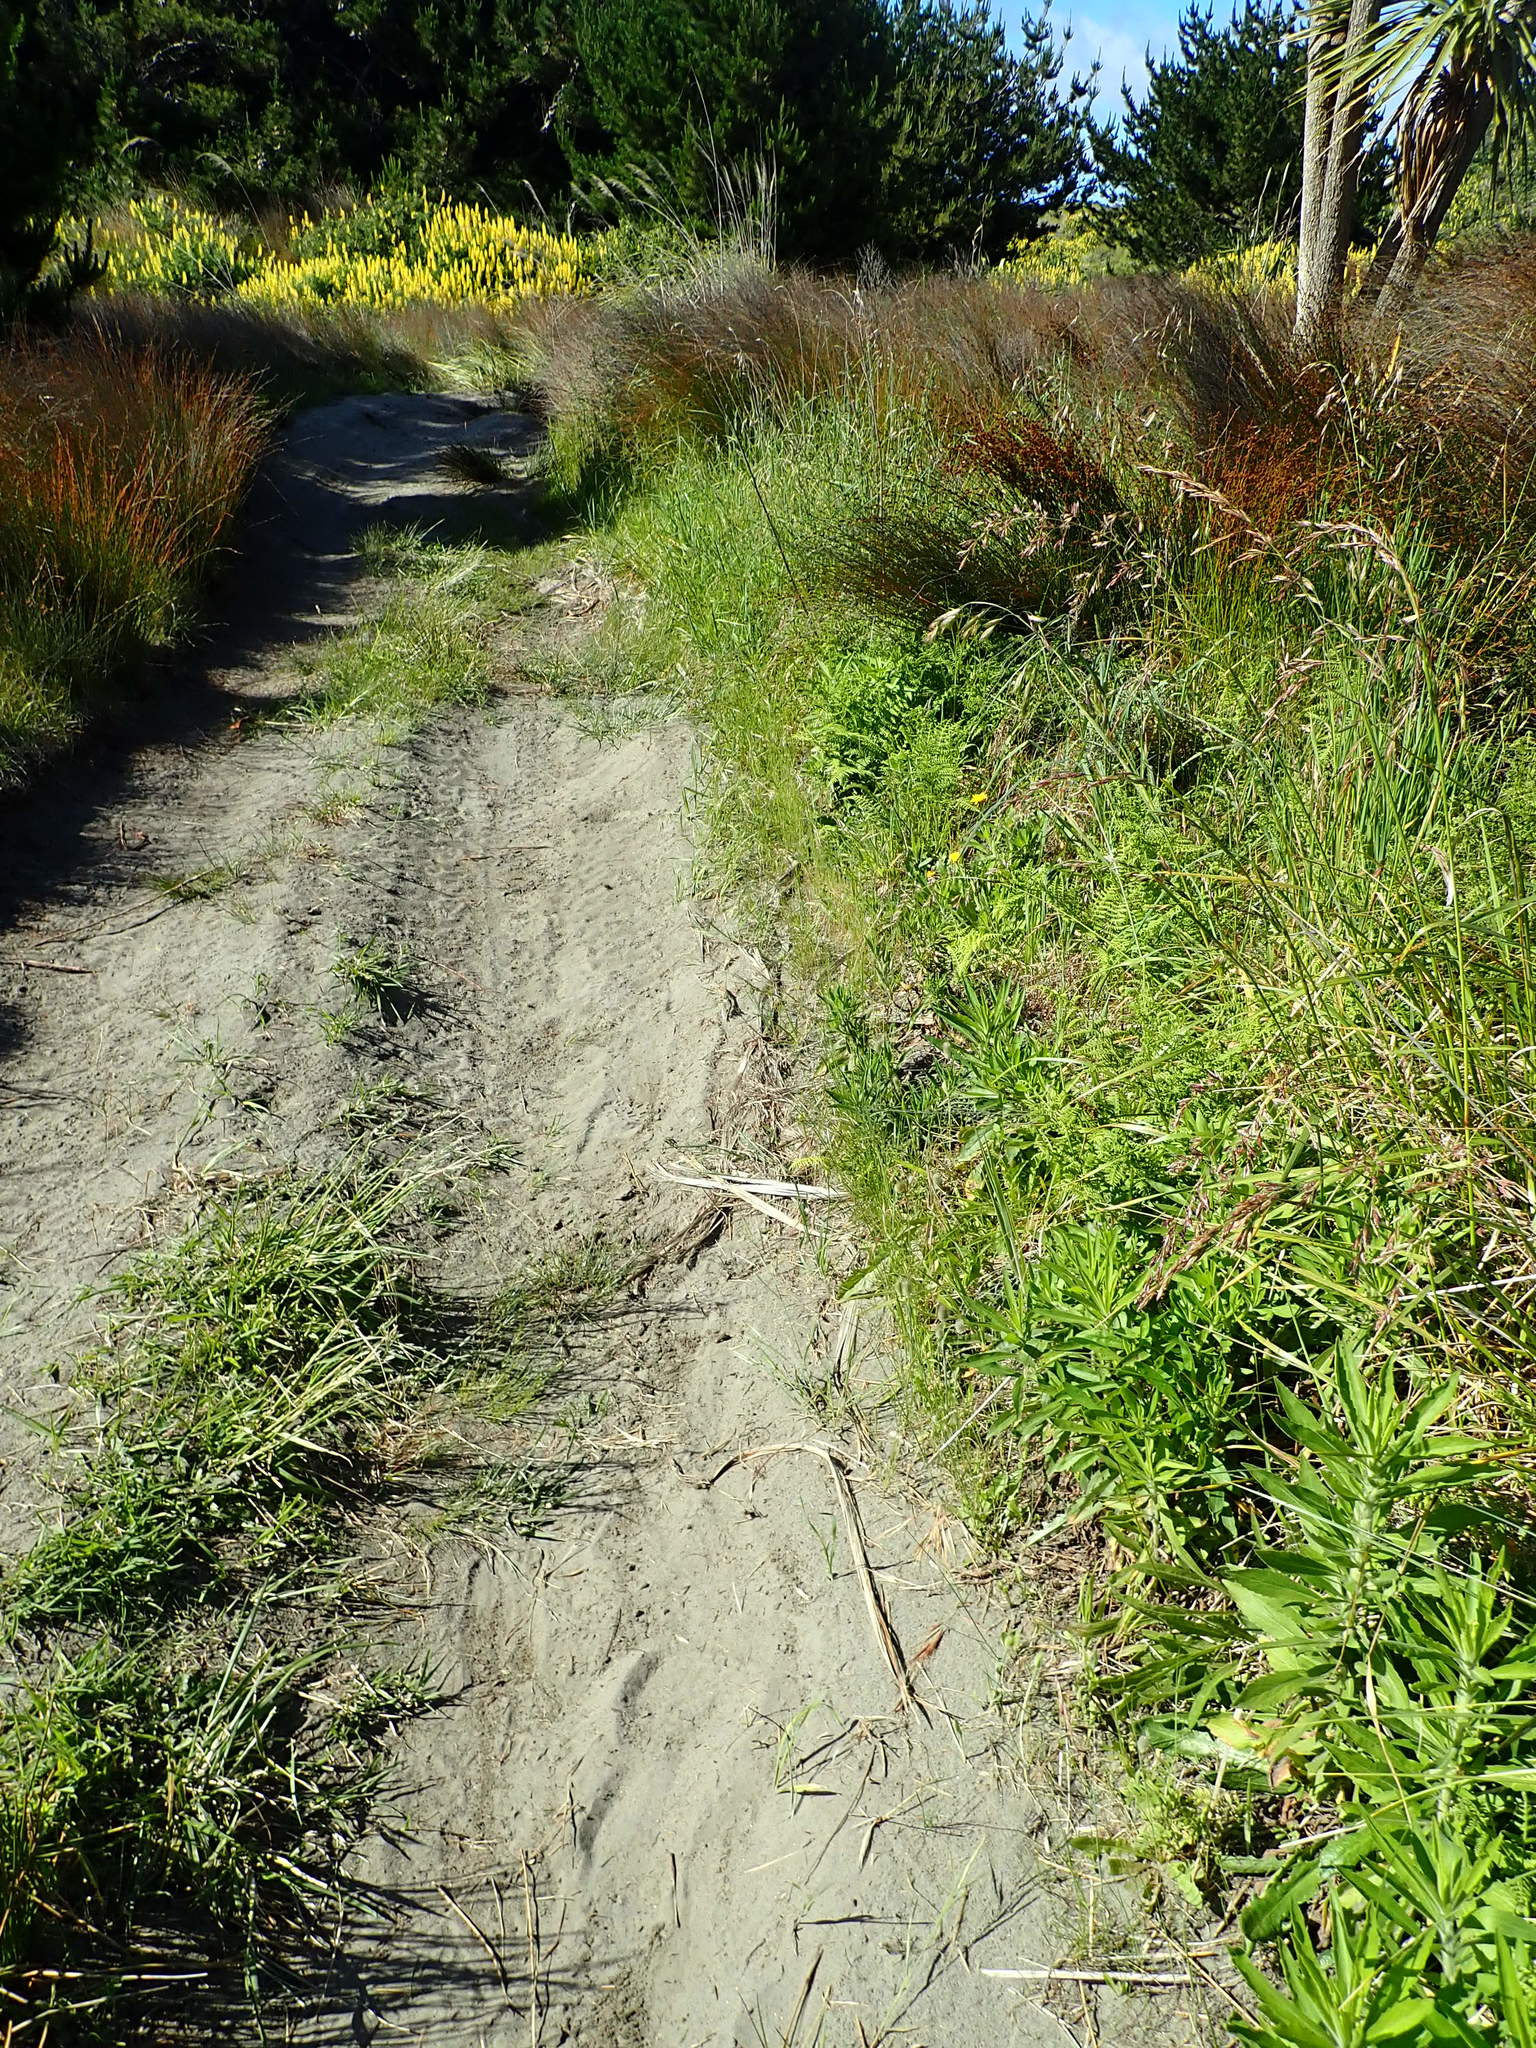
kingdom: Plantae
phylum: Tracheophyta
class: Polypodiopsida
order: Polypodiales
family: Dennstaedtiaceae
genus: Hypolepis
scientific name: Hypolepis ambigua
